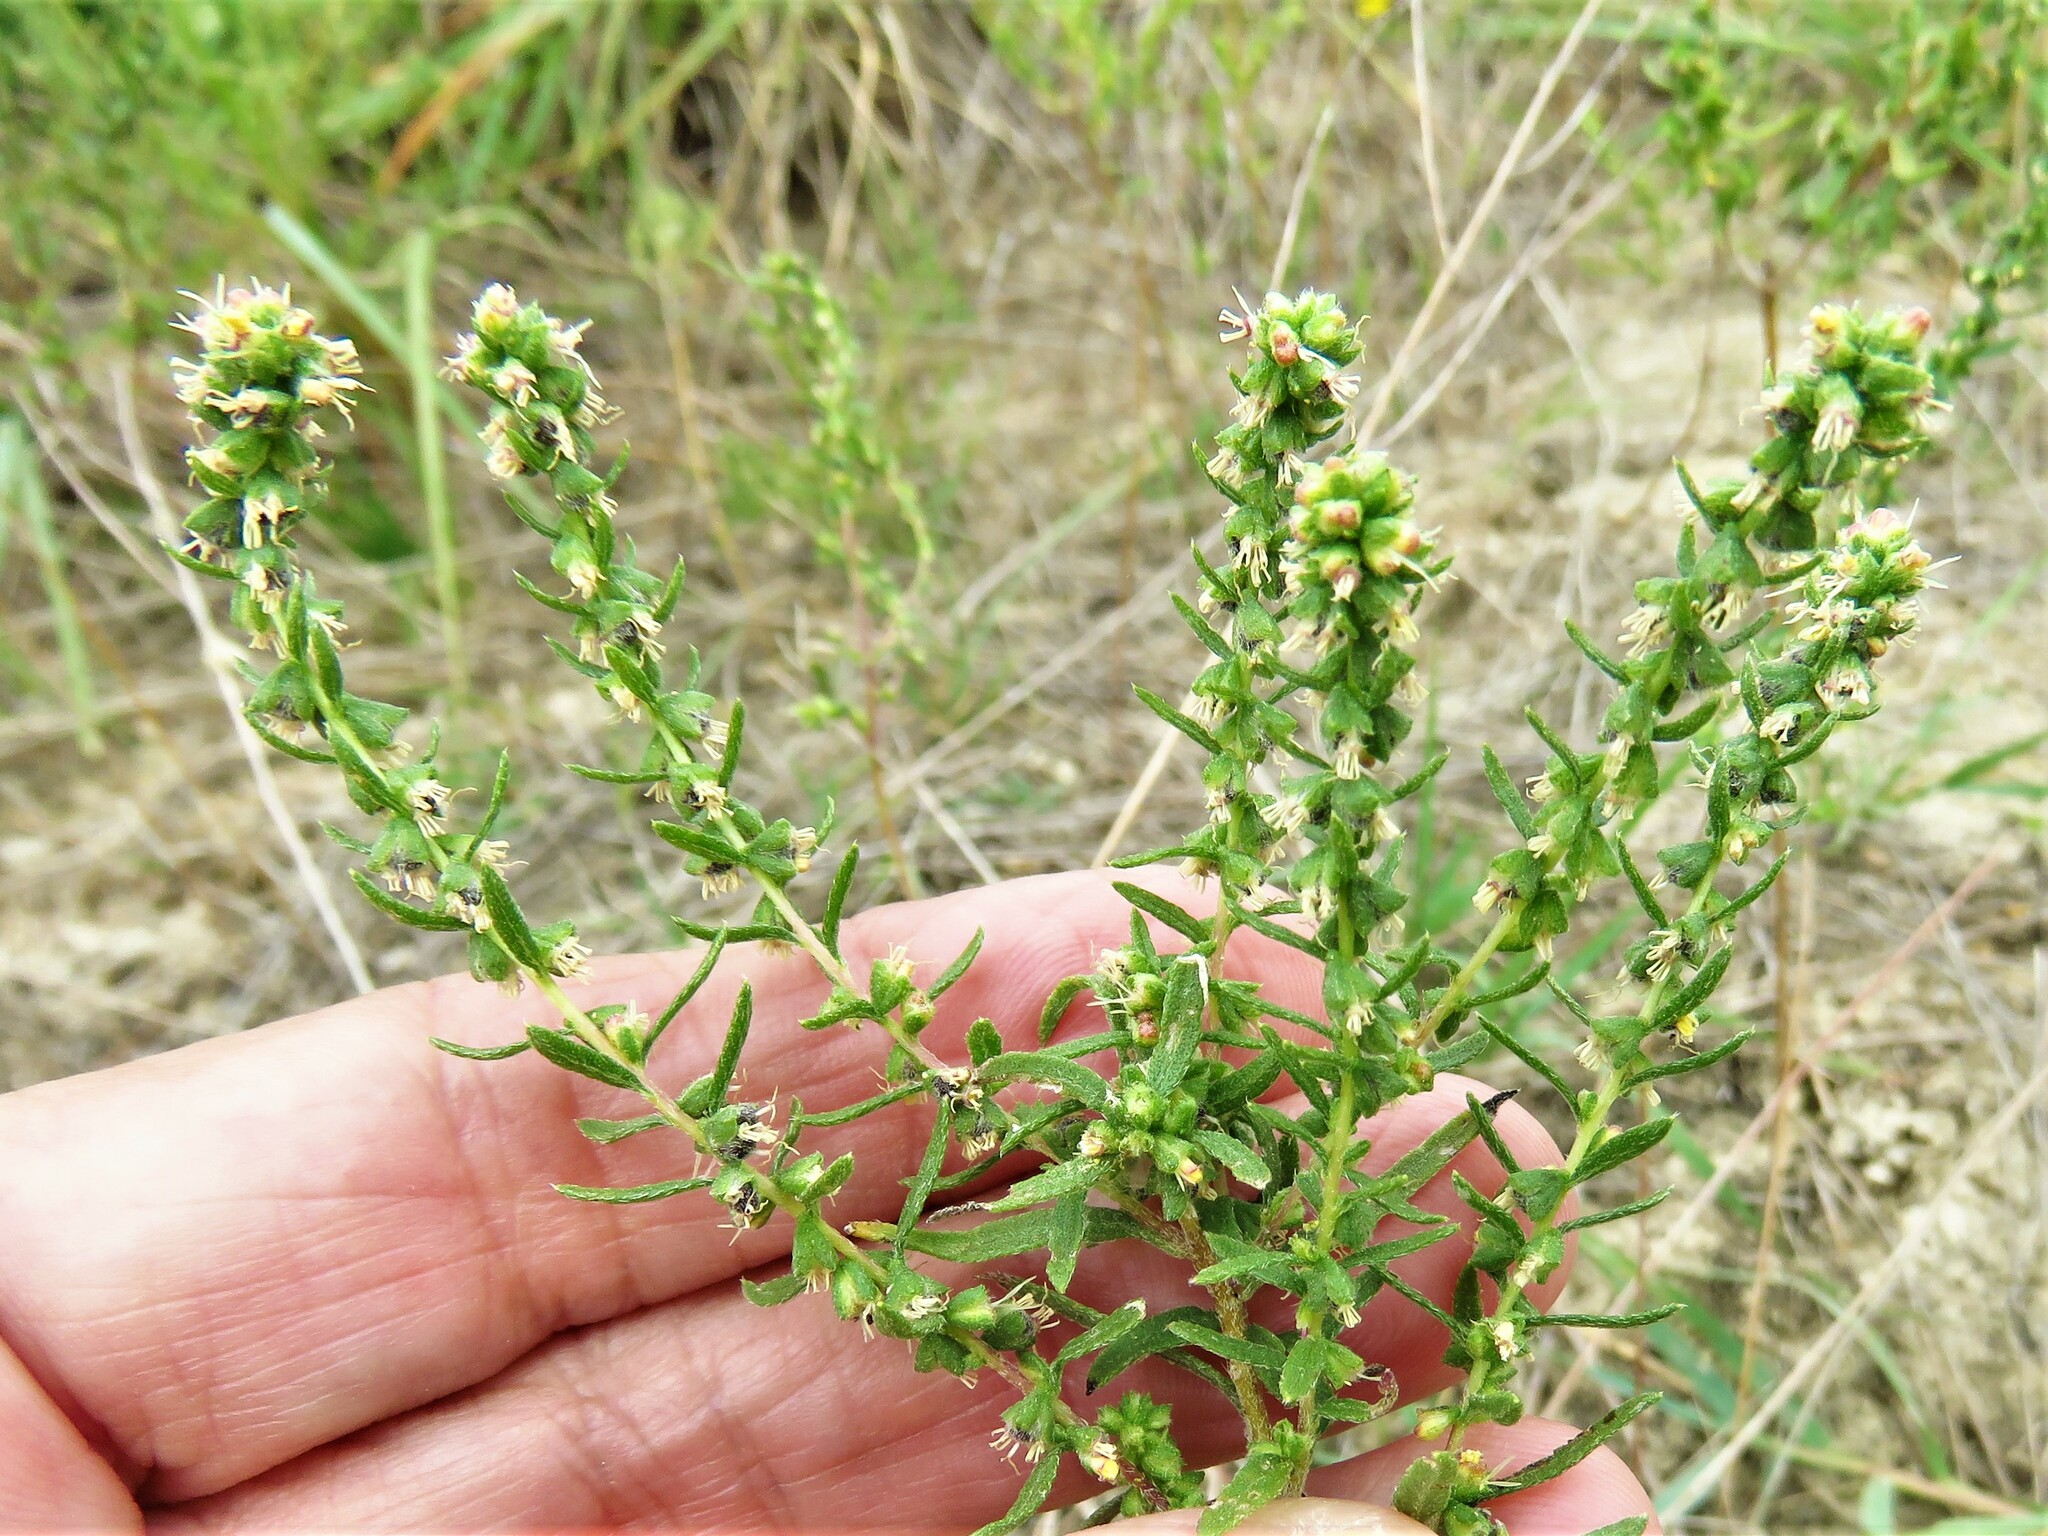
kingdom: Plantae
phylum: Tracheophyta
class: Magnoliopsida
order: Asterales
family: Asteraceae
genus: Iva
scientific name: Iva asperifolia
